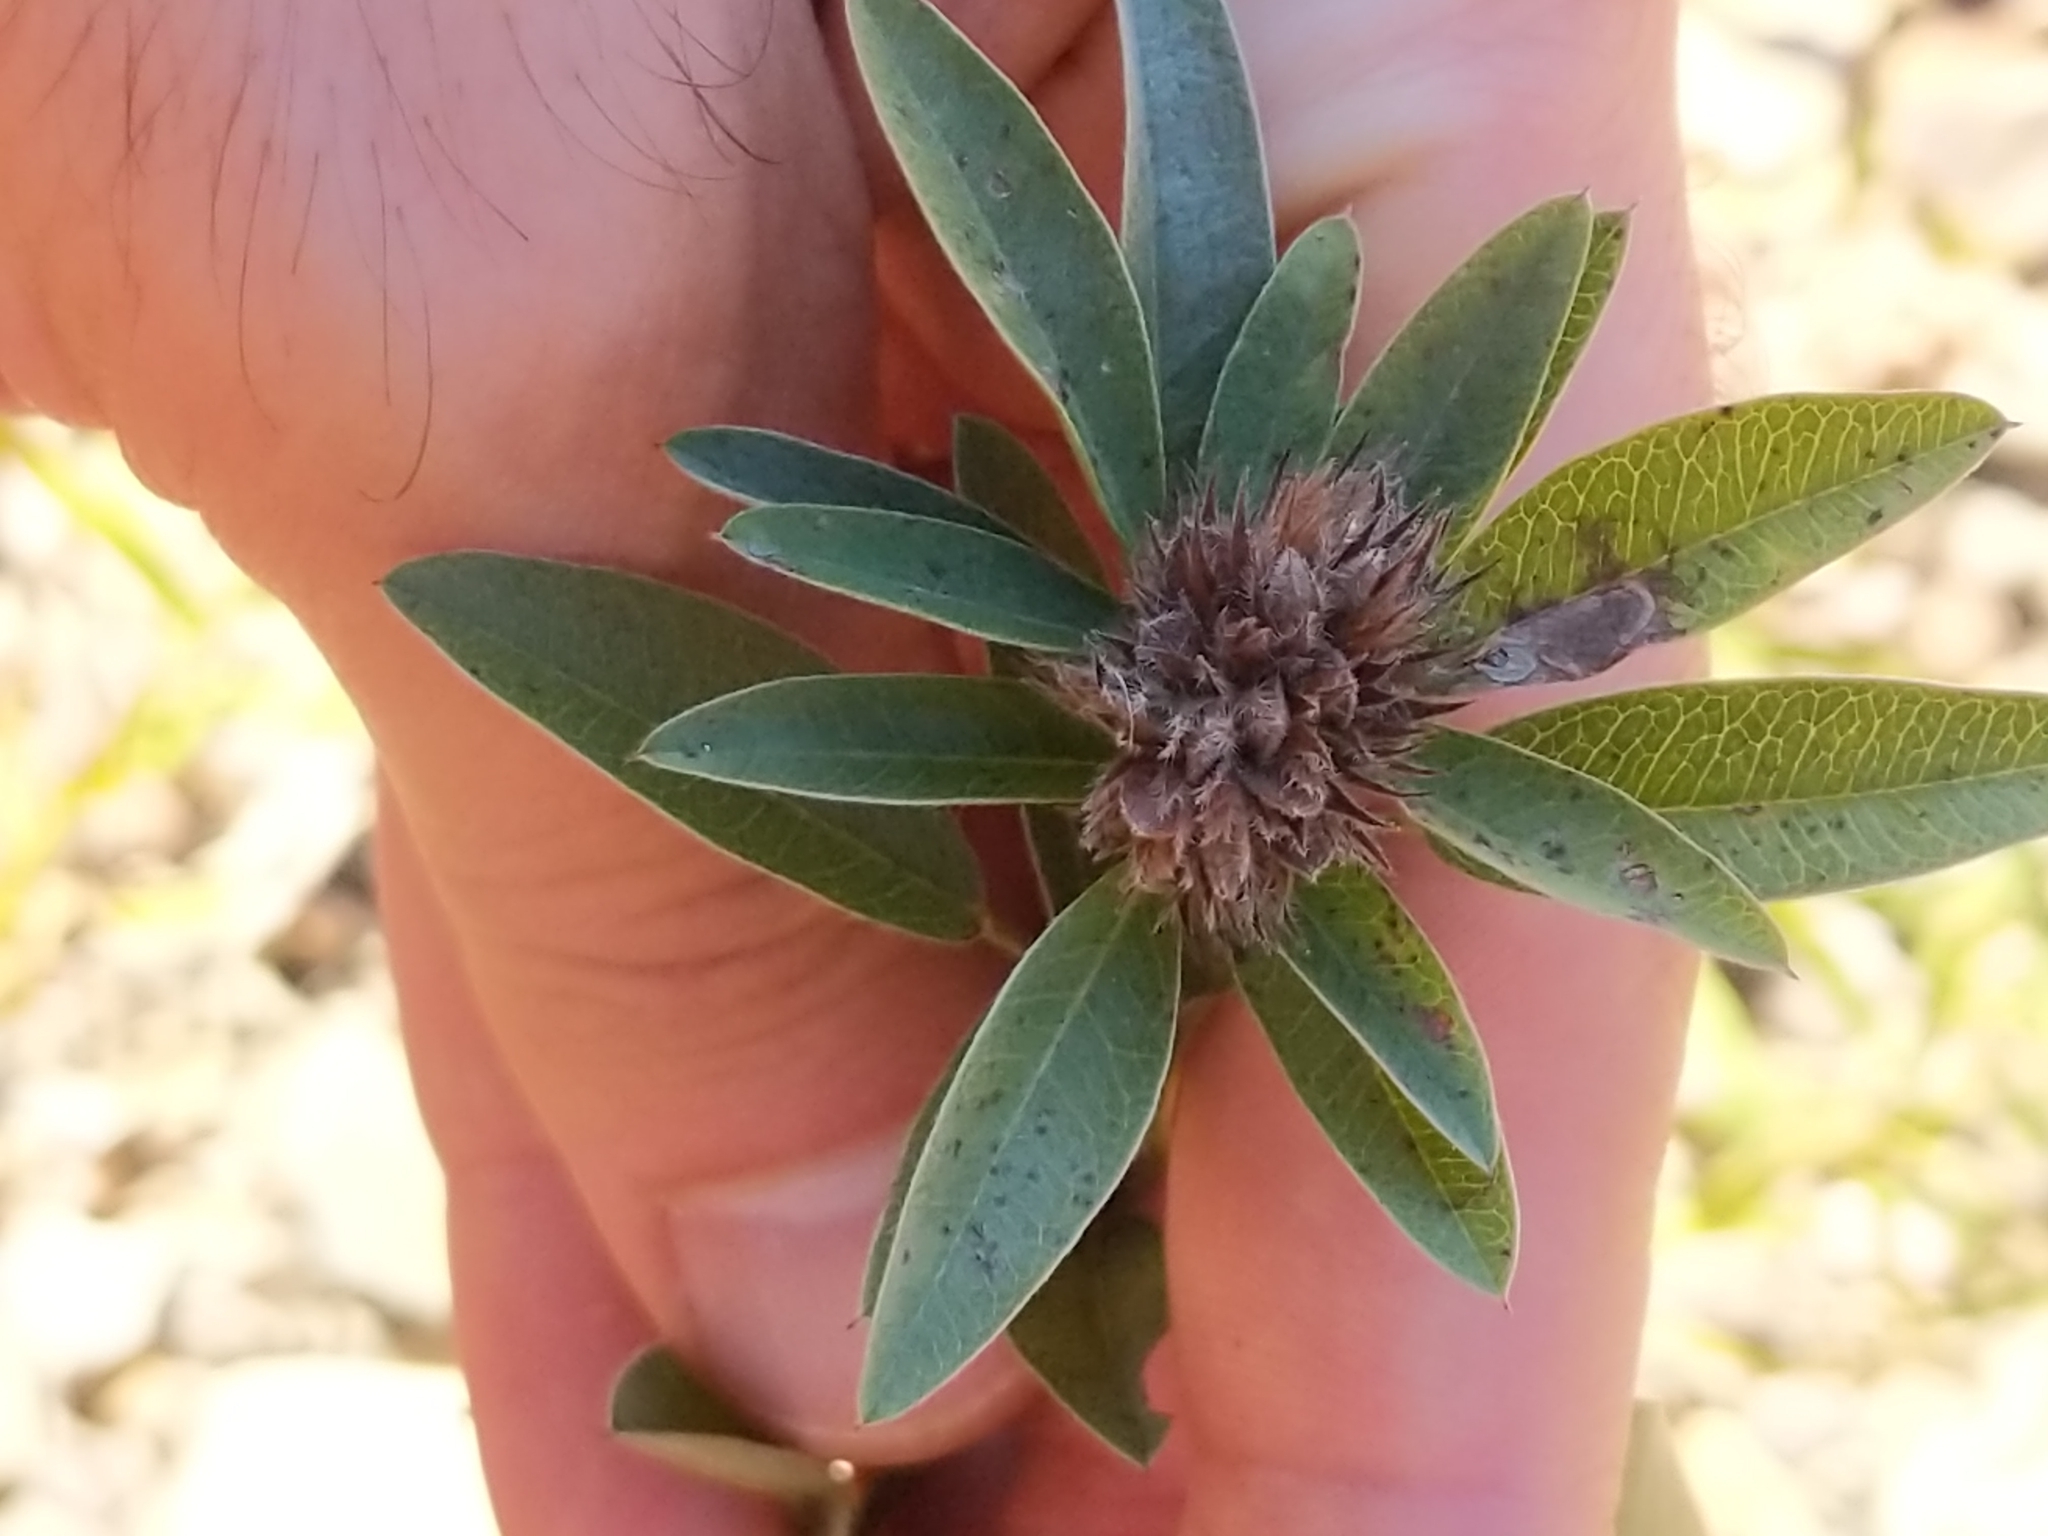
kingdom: Plantae
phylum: Tracheophyta
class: Magnoliopsida
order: Fabales
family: Fabaceae
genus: Lespedeza
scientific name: Lespedeza capitata
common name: Dusty clover
